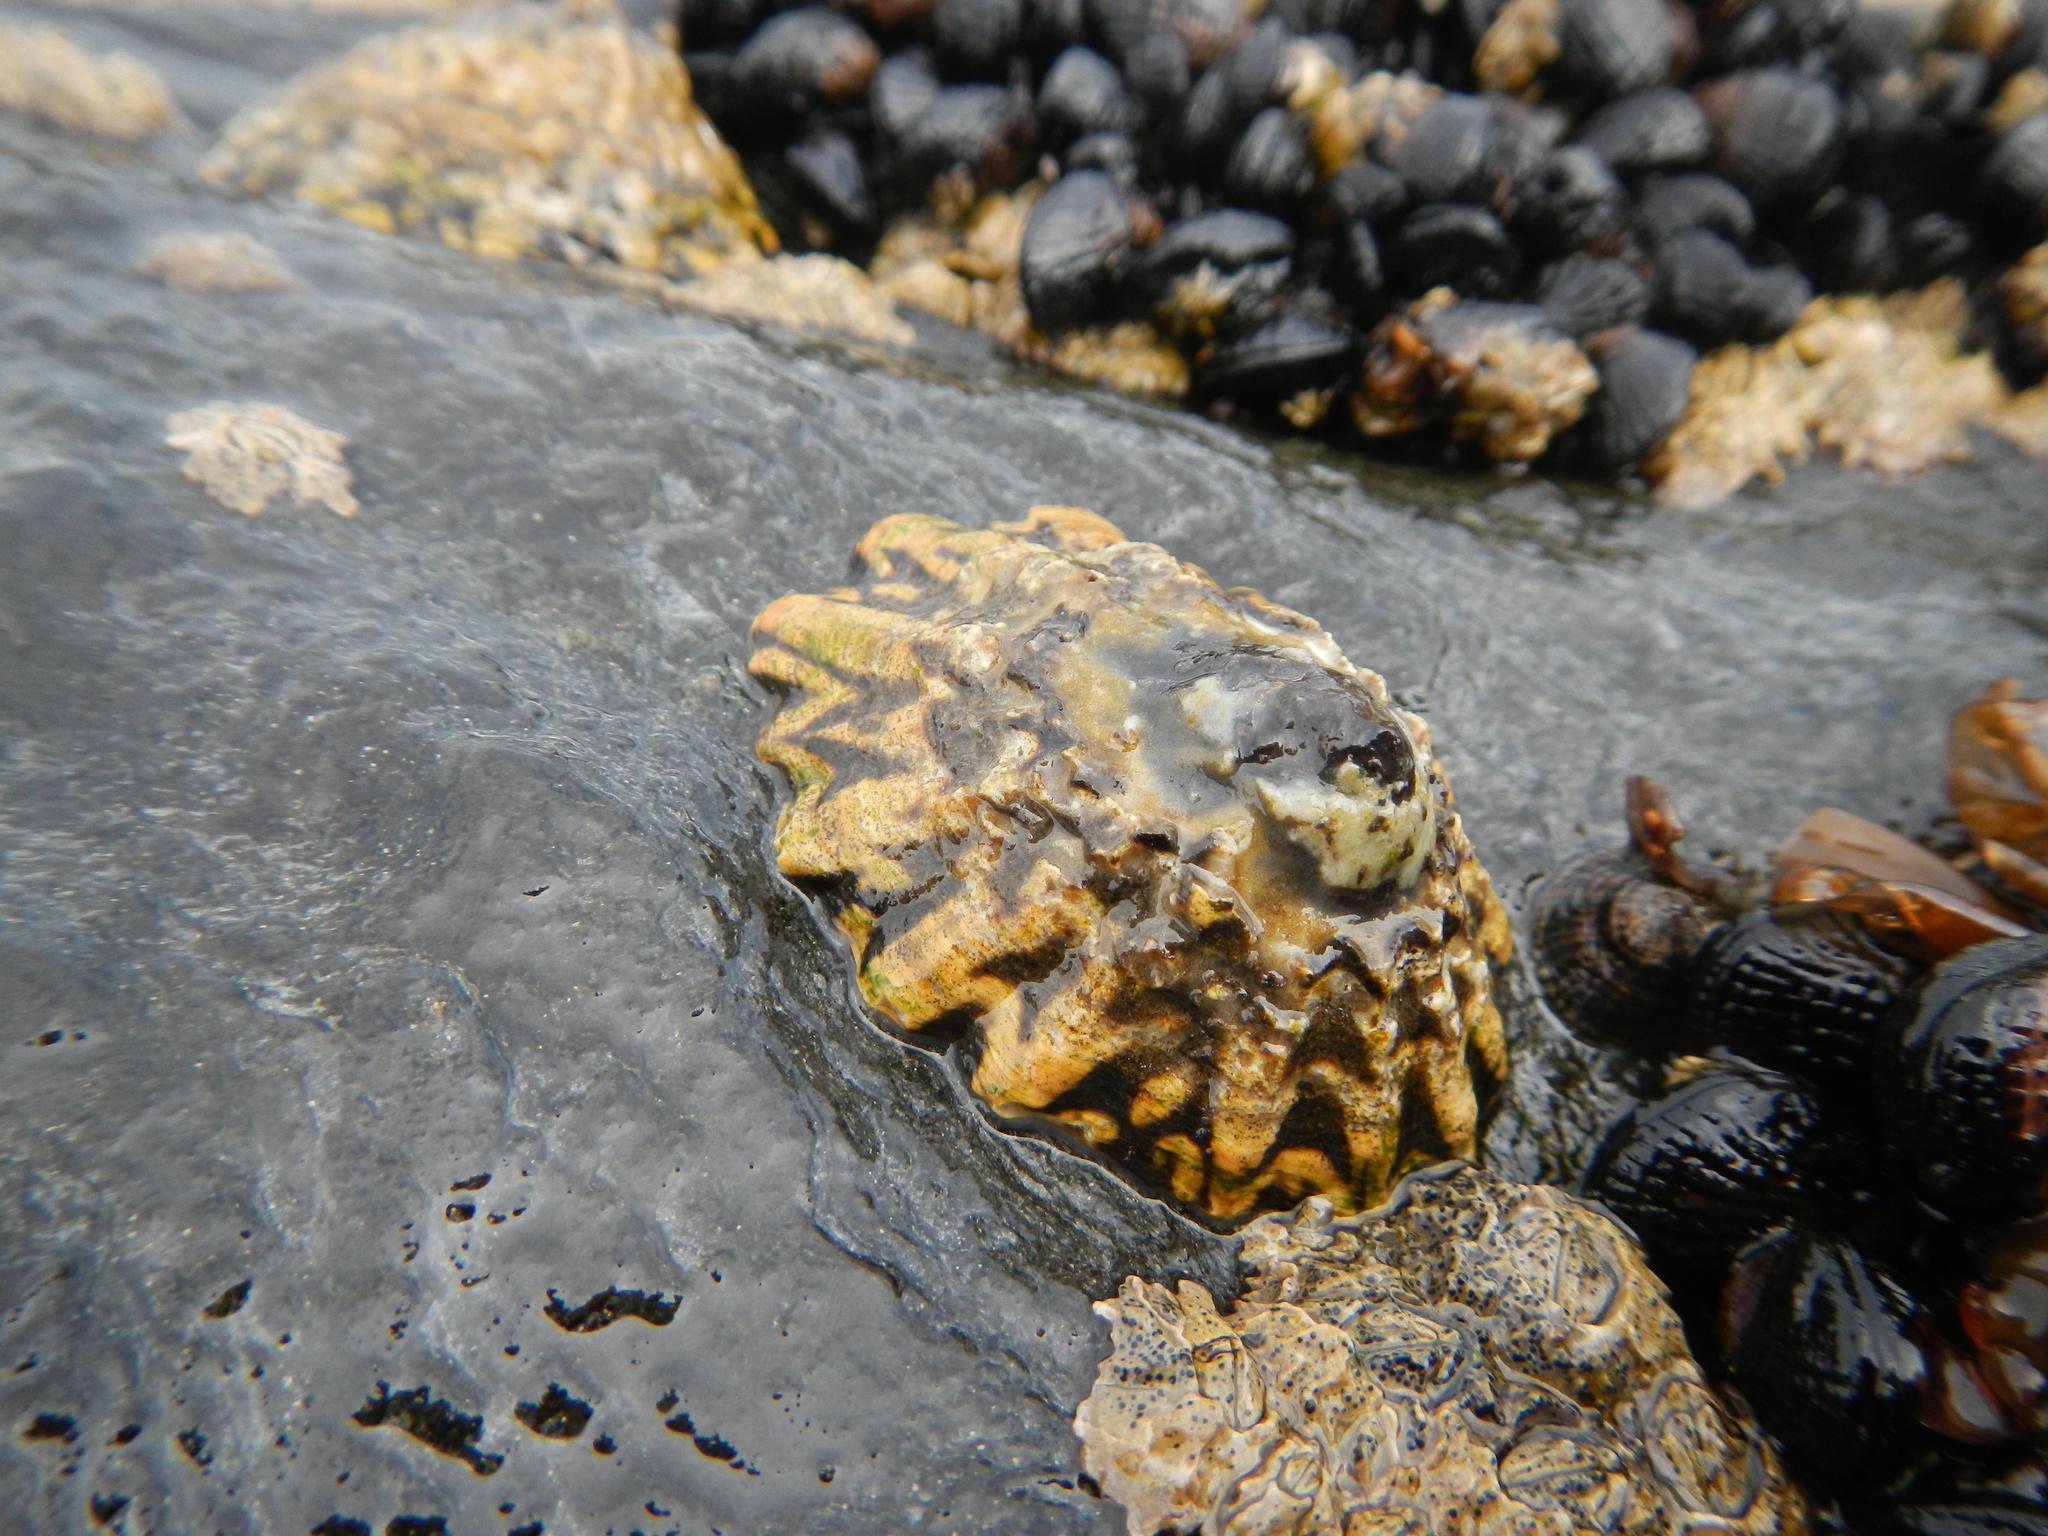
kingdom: Animalia
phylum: Mollusca
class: Gastropoda
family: Lottiidae
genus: Scurria
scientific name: Scurria zebrina
